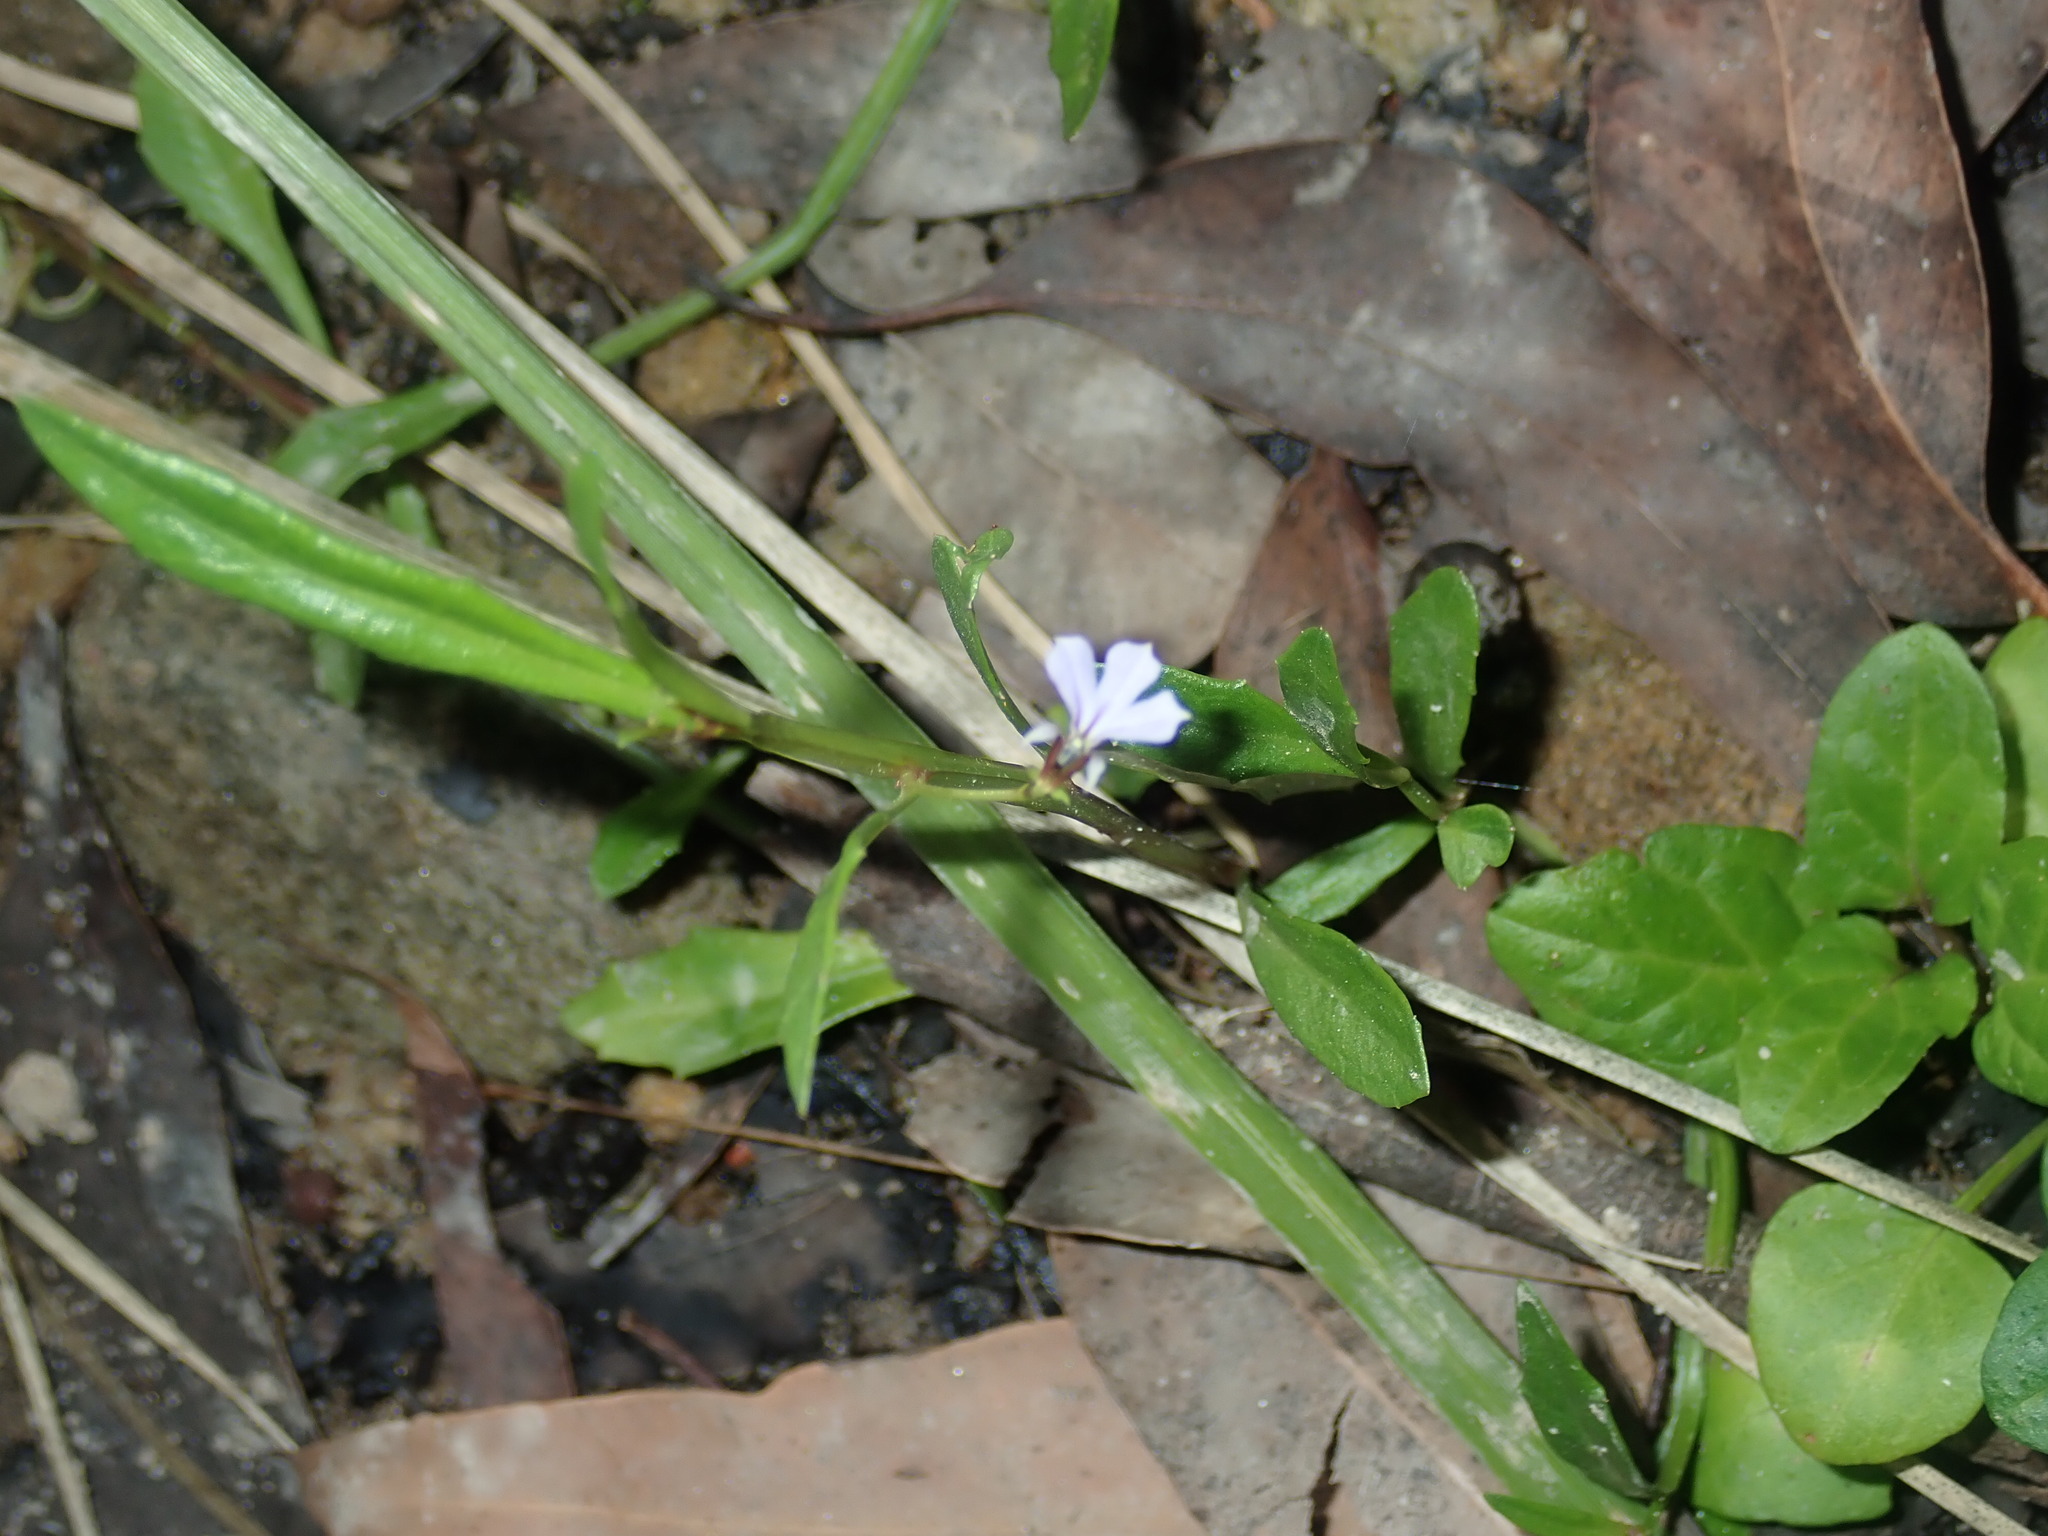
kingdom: Plantae
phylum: Tracheophyta
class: Magnoliopsida
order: Asterales
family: Campanulaceae
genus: Lobelia
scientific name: Lobelia anceps
